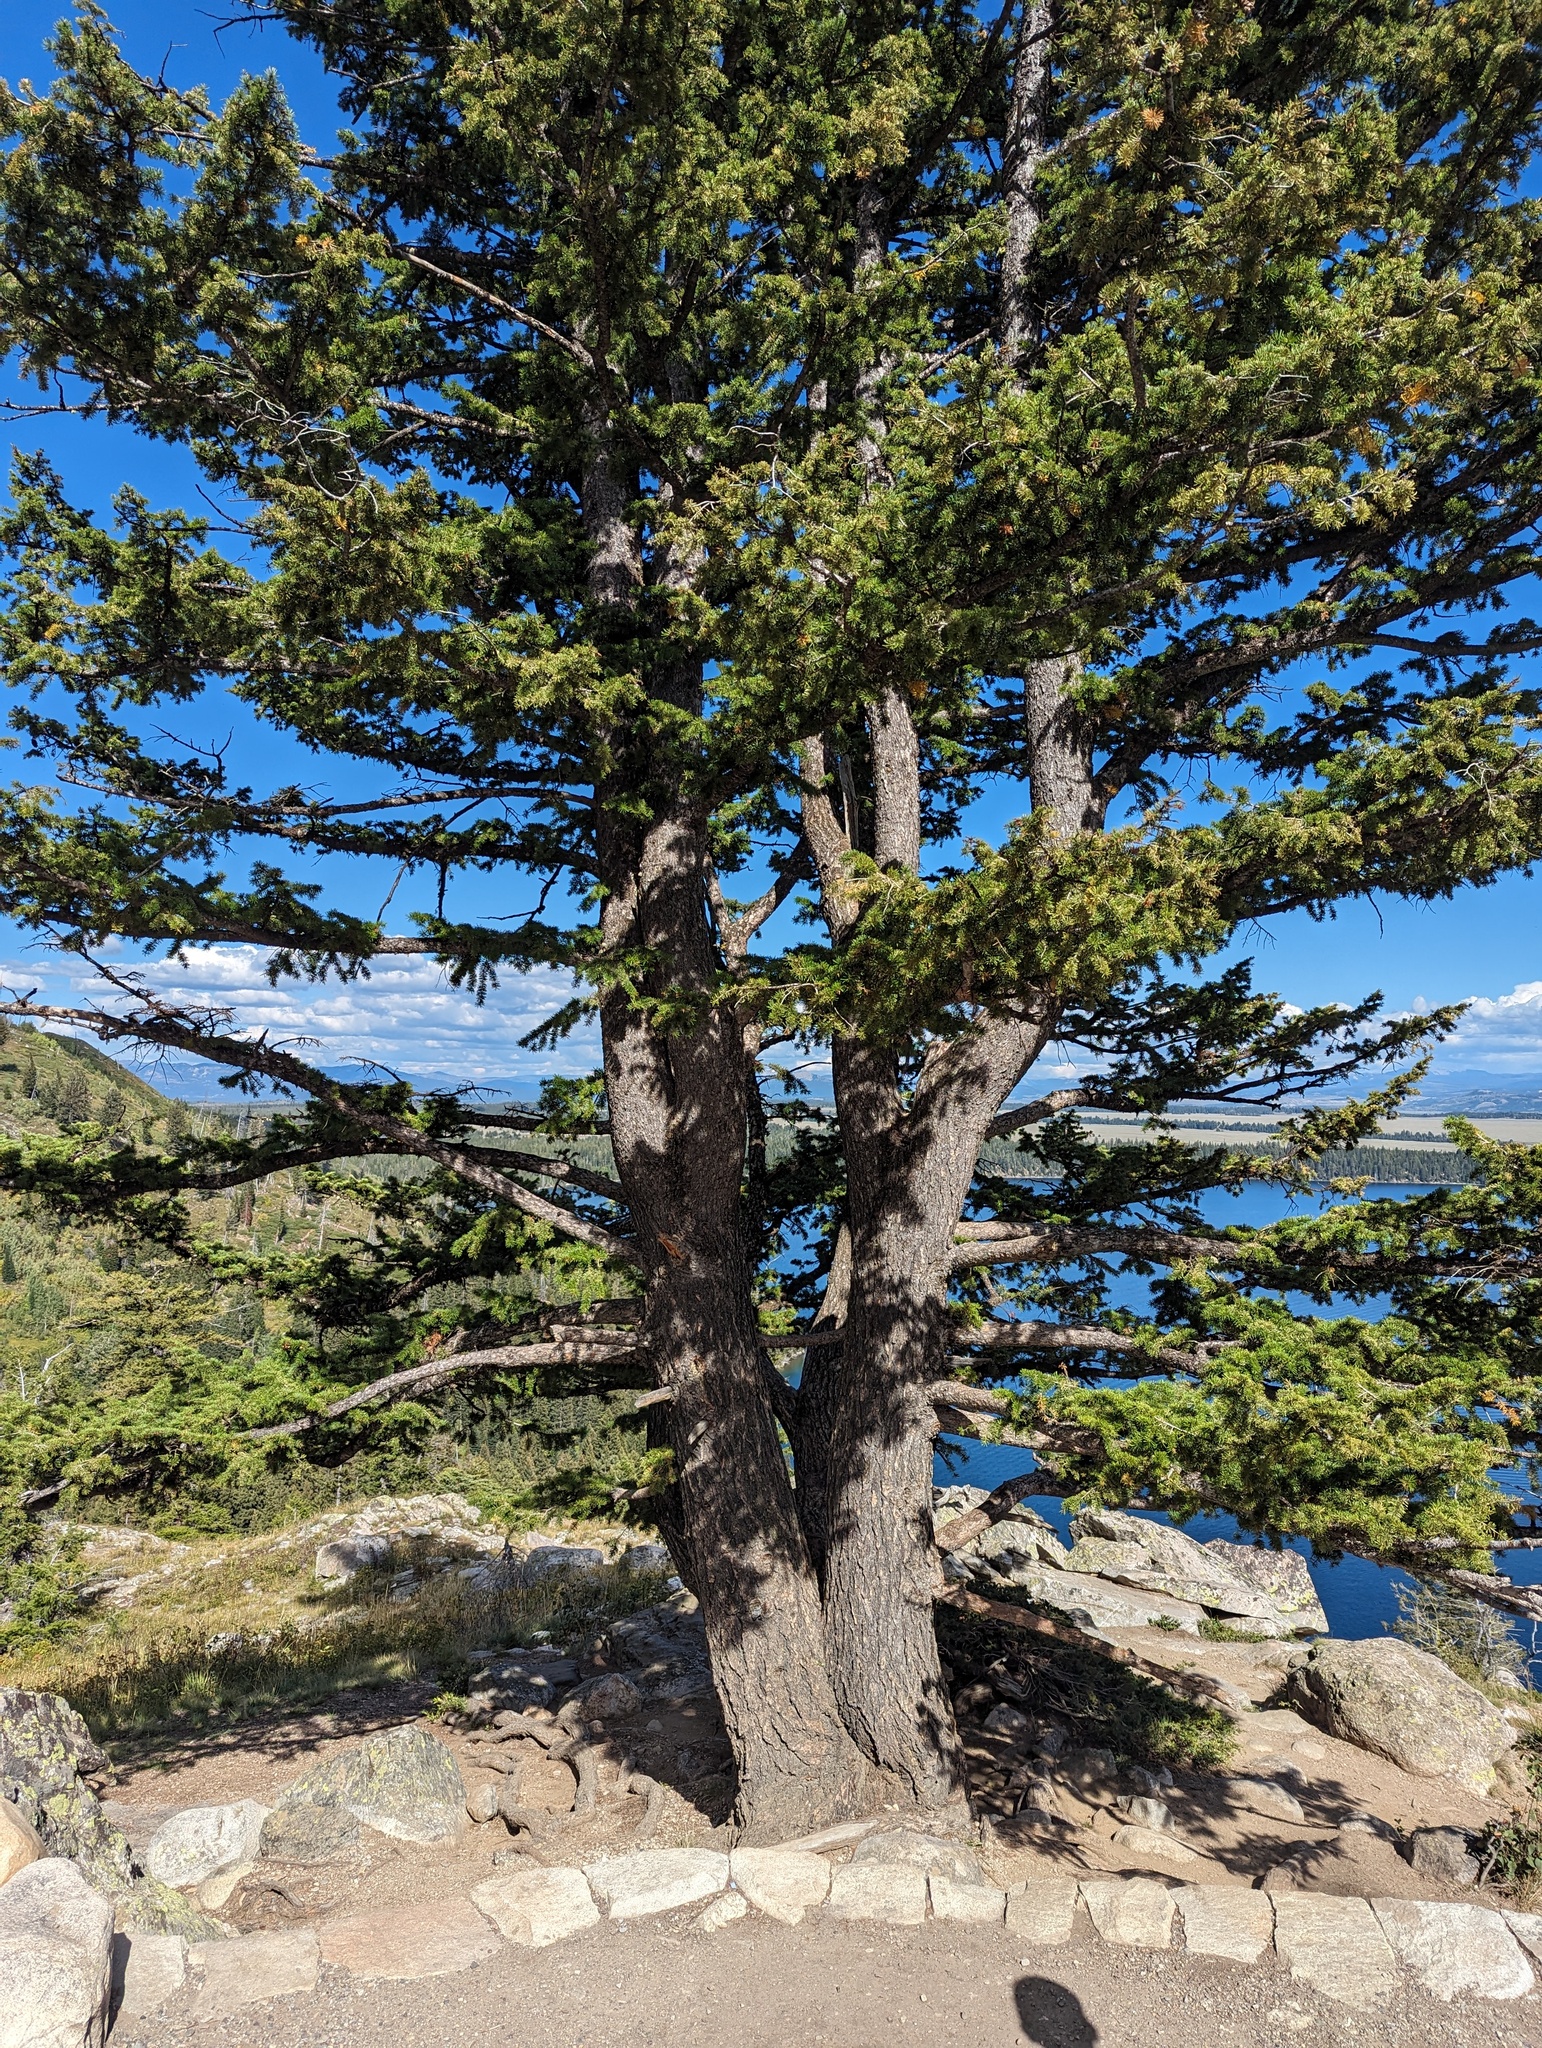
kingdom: Plantae
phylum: Tracheophyta
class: Pinopsida
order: Pinales
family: Pinaceae
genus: Pseudotsuga
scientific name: Pseudotsuga menziesii
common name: Douglas fir
